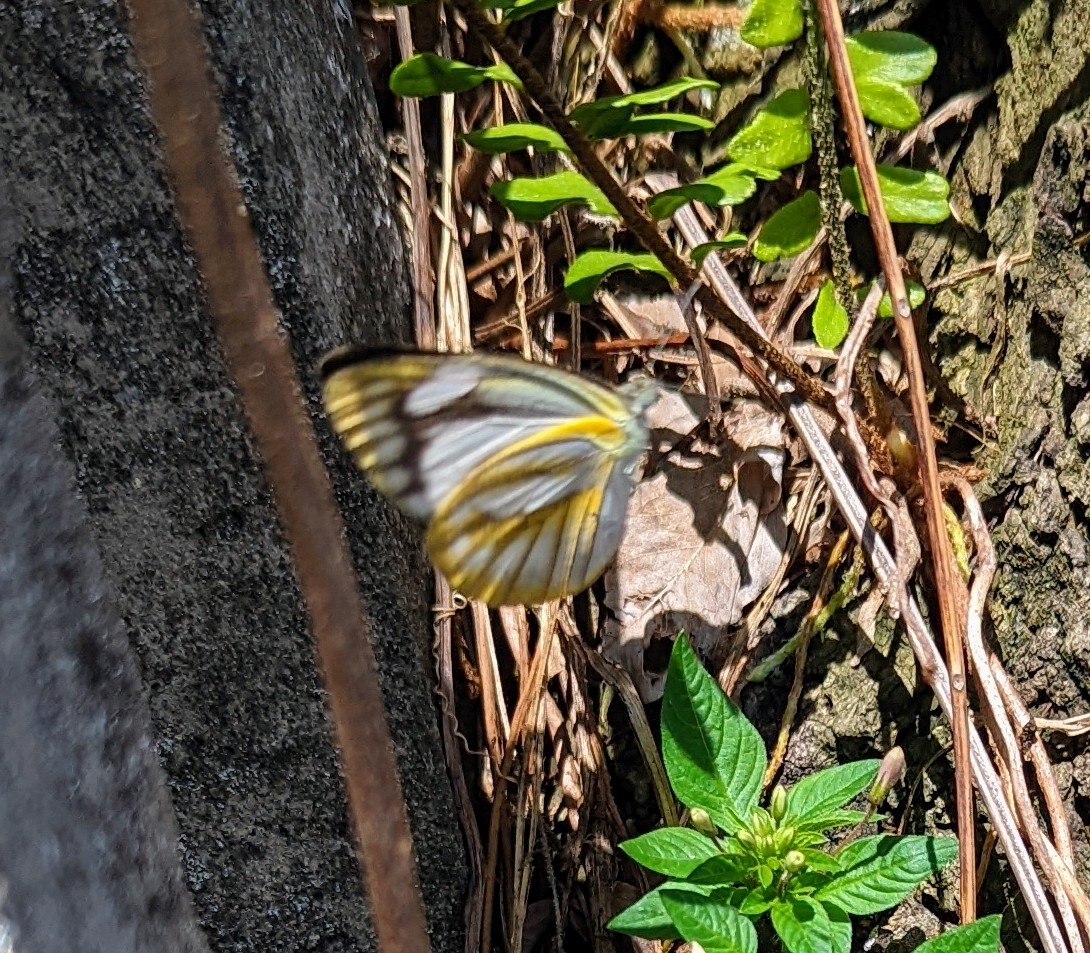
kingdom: Animalia
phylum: Arthropoda
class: Insecta
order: Lepidoptera
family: Pieridae
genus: Appias
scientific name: Appias libythea
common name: Striped albatross
